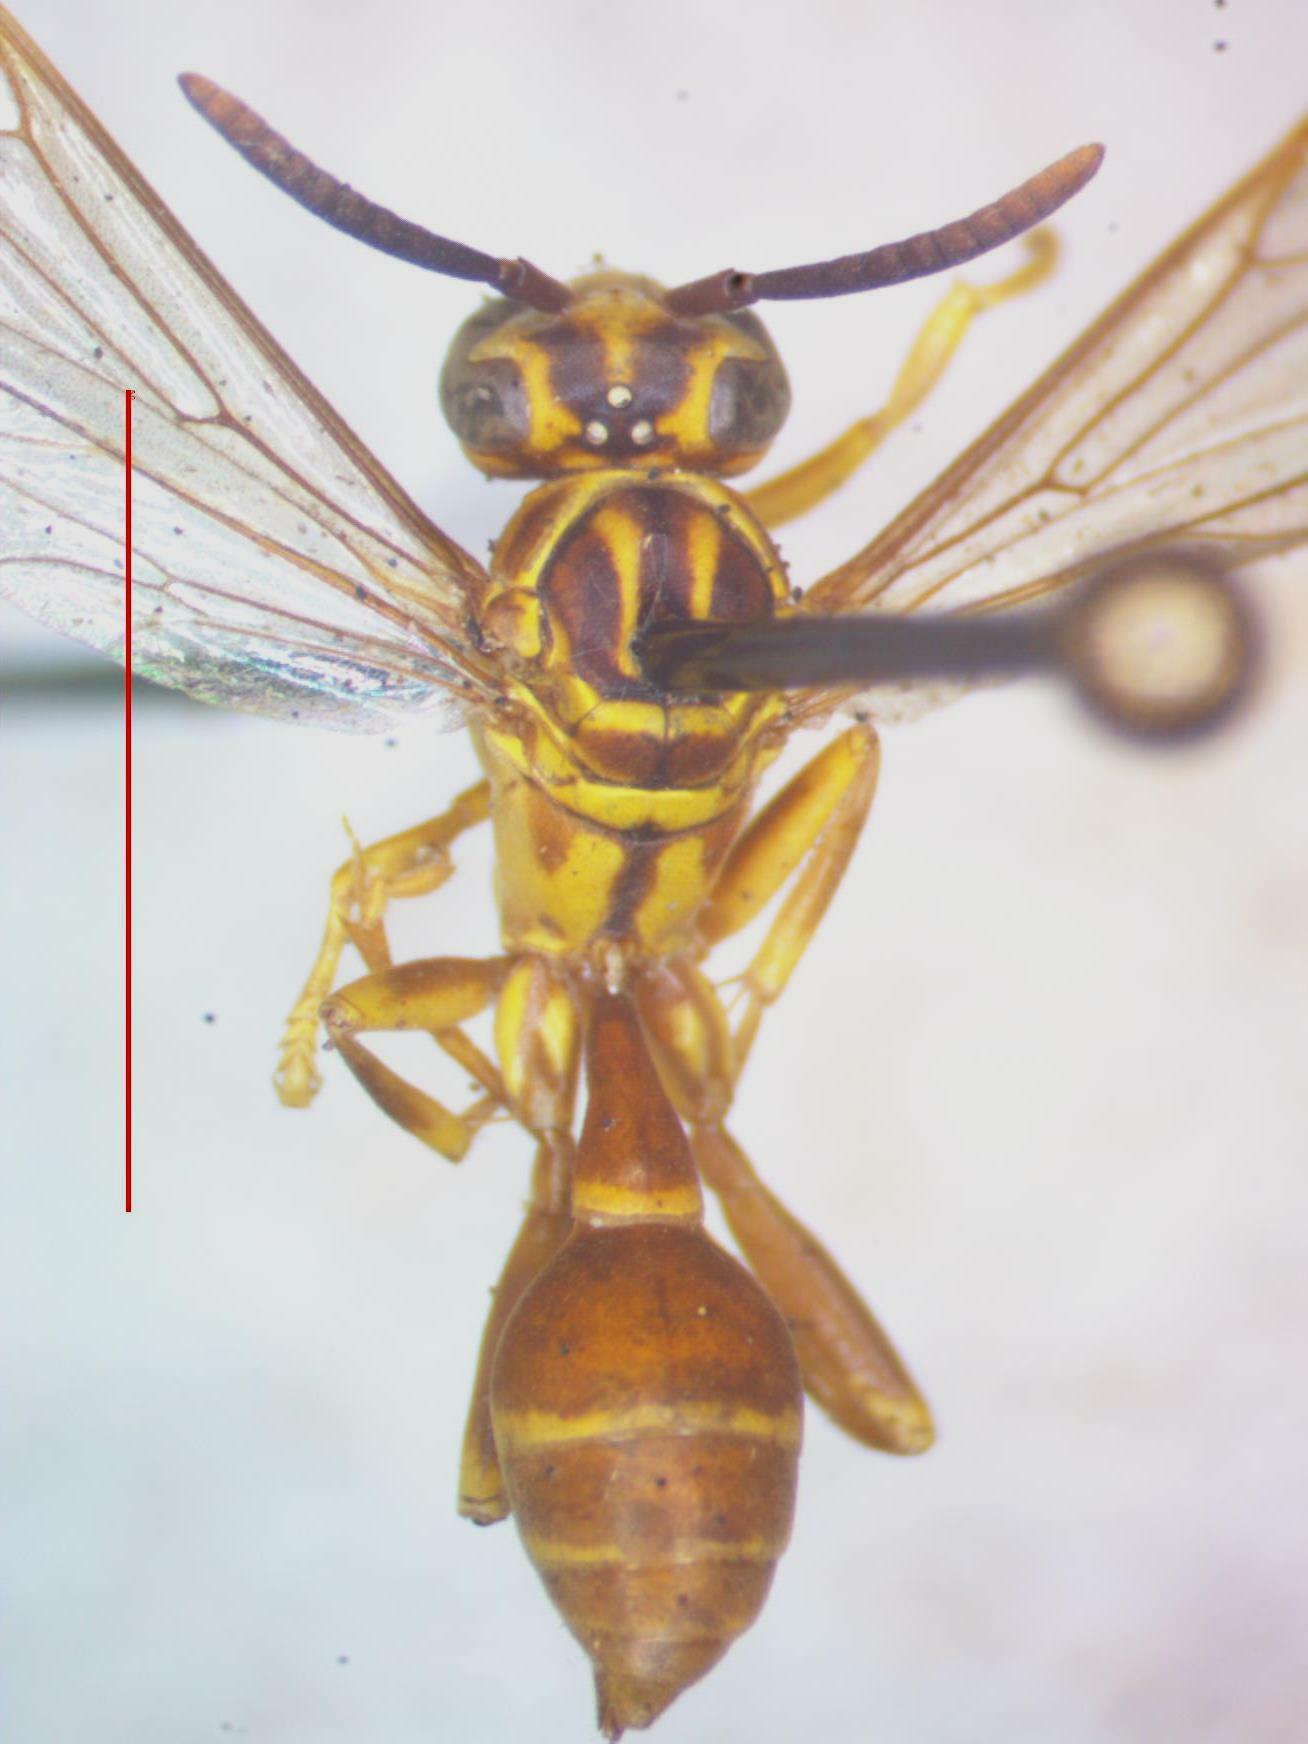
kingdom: Animalia
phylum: Arthropoda
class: Insecta
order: Hymenoptera
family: Vespidae
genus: Mischocyttarus
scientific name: Mischocyttarus angulatus
